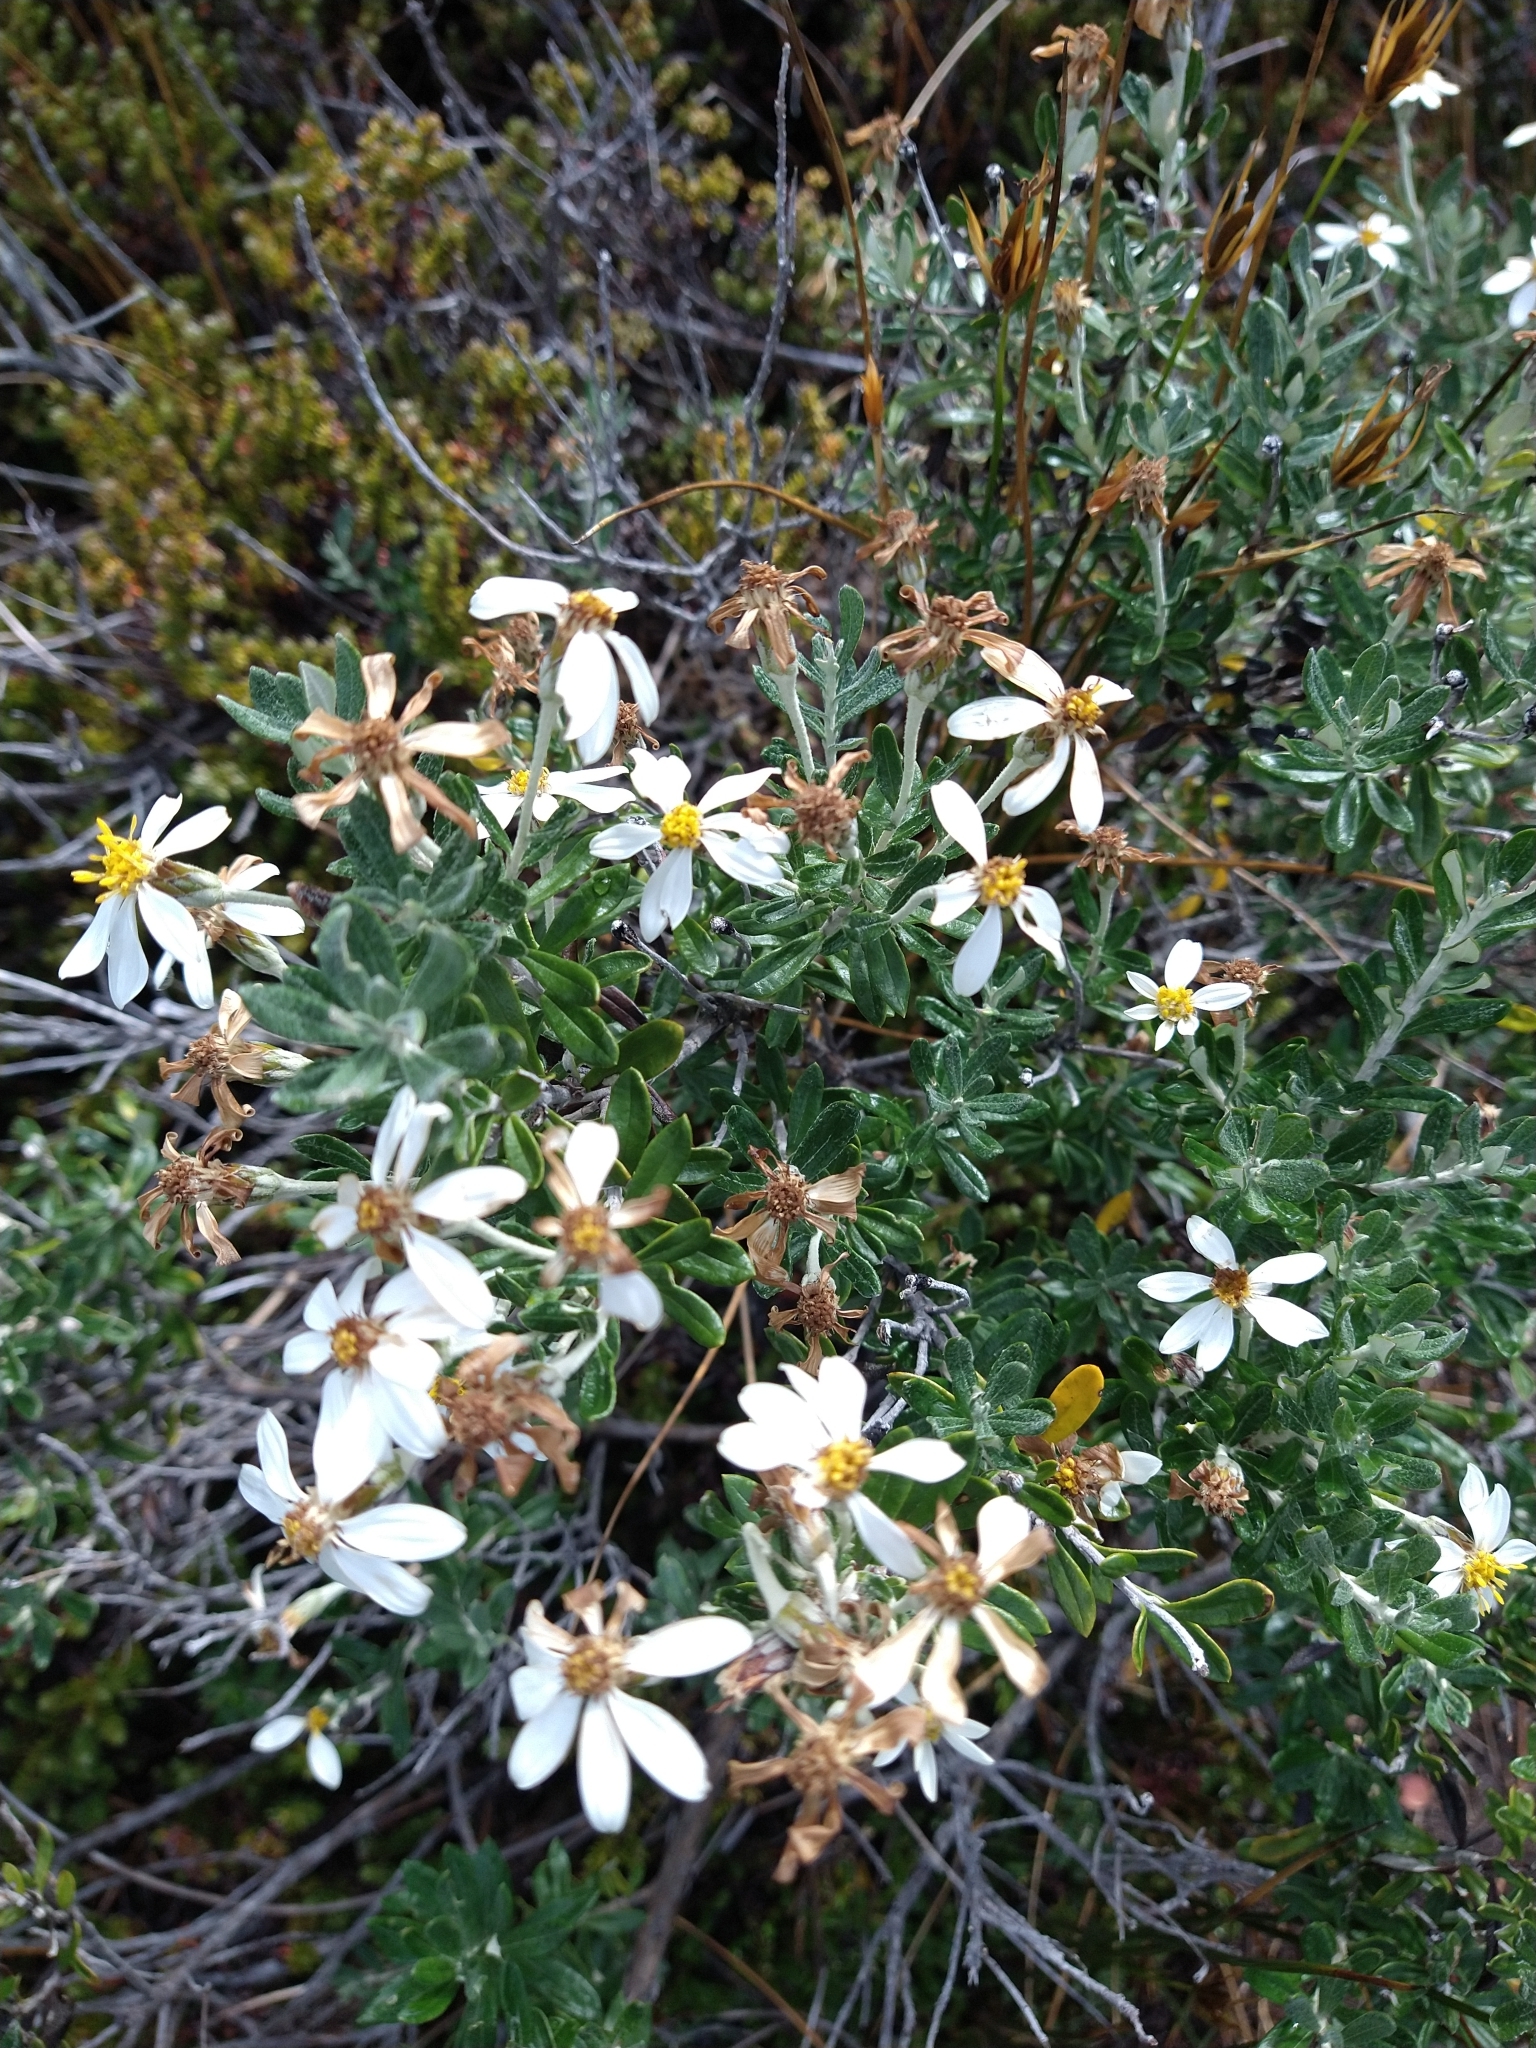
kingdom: Plantae
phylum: Tracheophyta
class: Magnoliopsida
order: Asterales
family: Asteraceae
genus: Chiliotrichum
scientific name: Chiliotrichum diffusum
